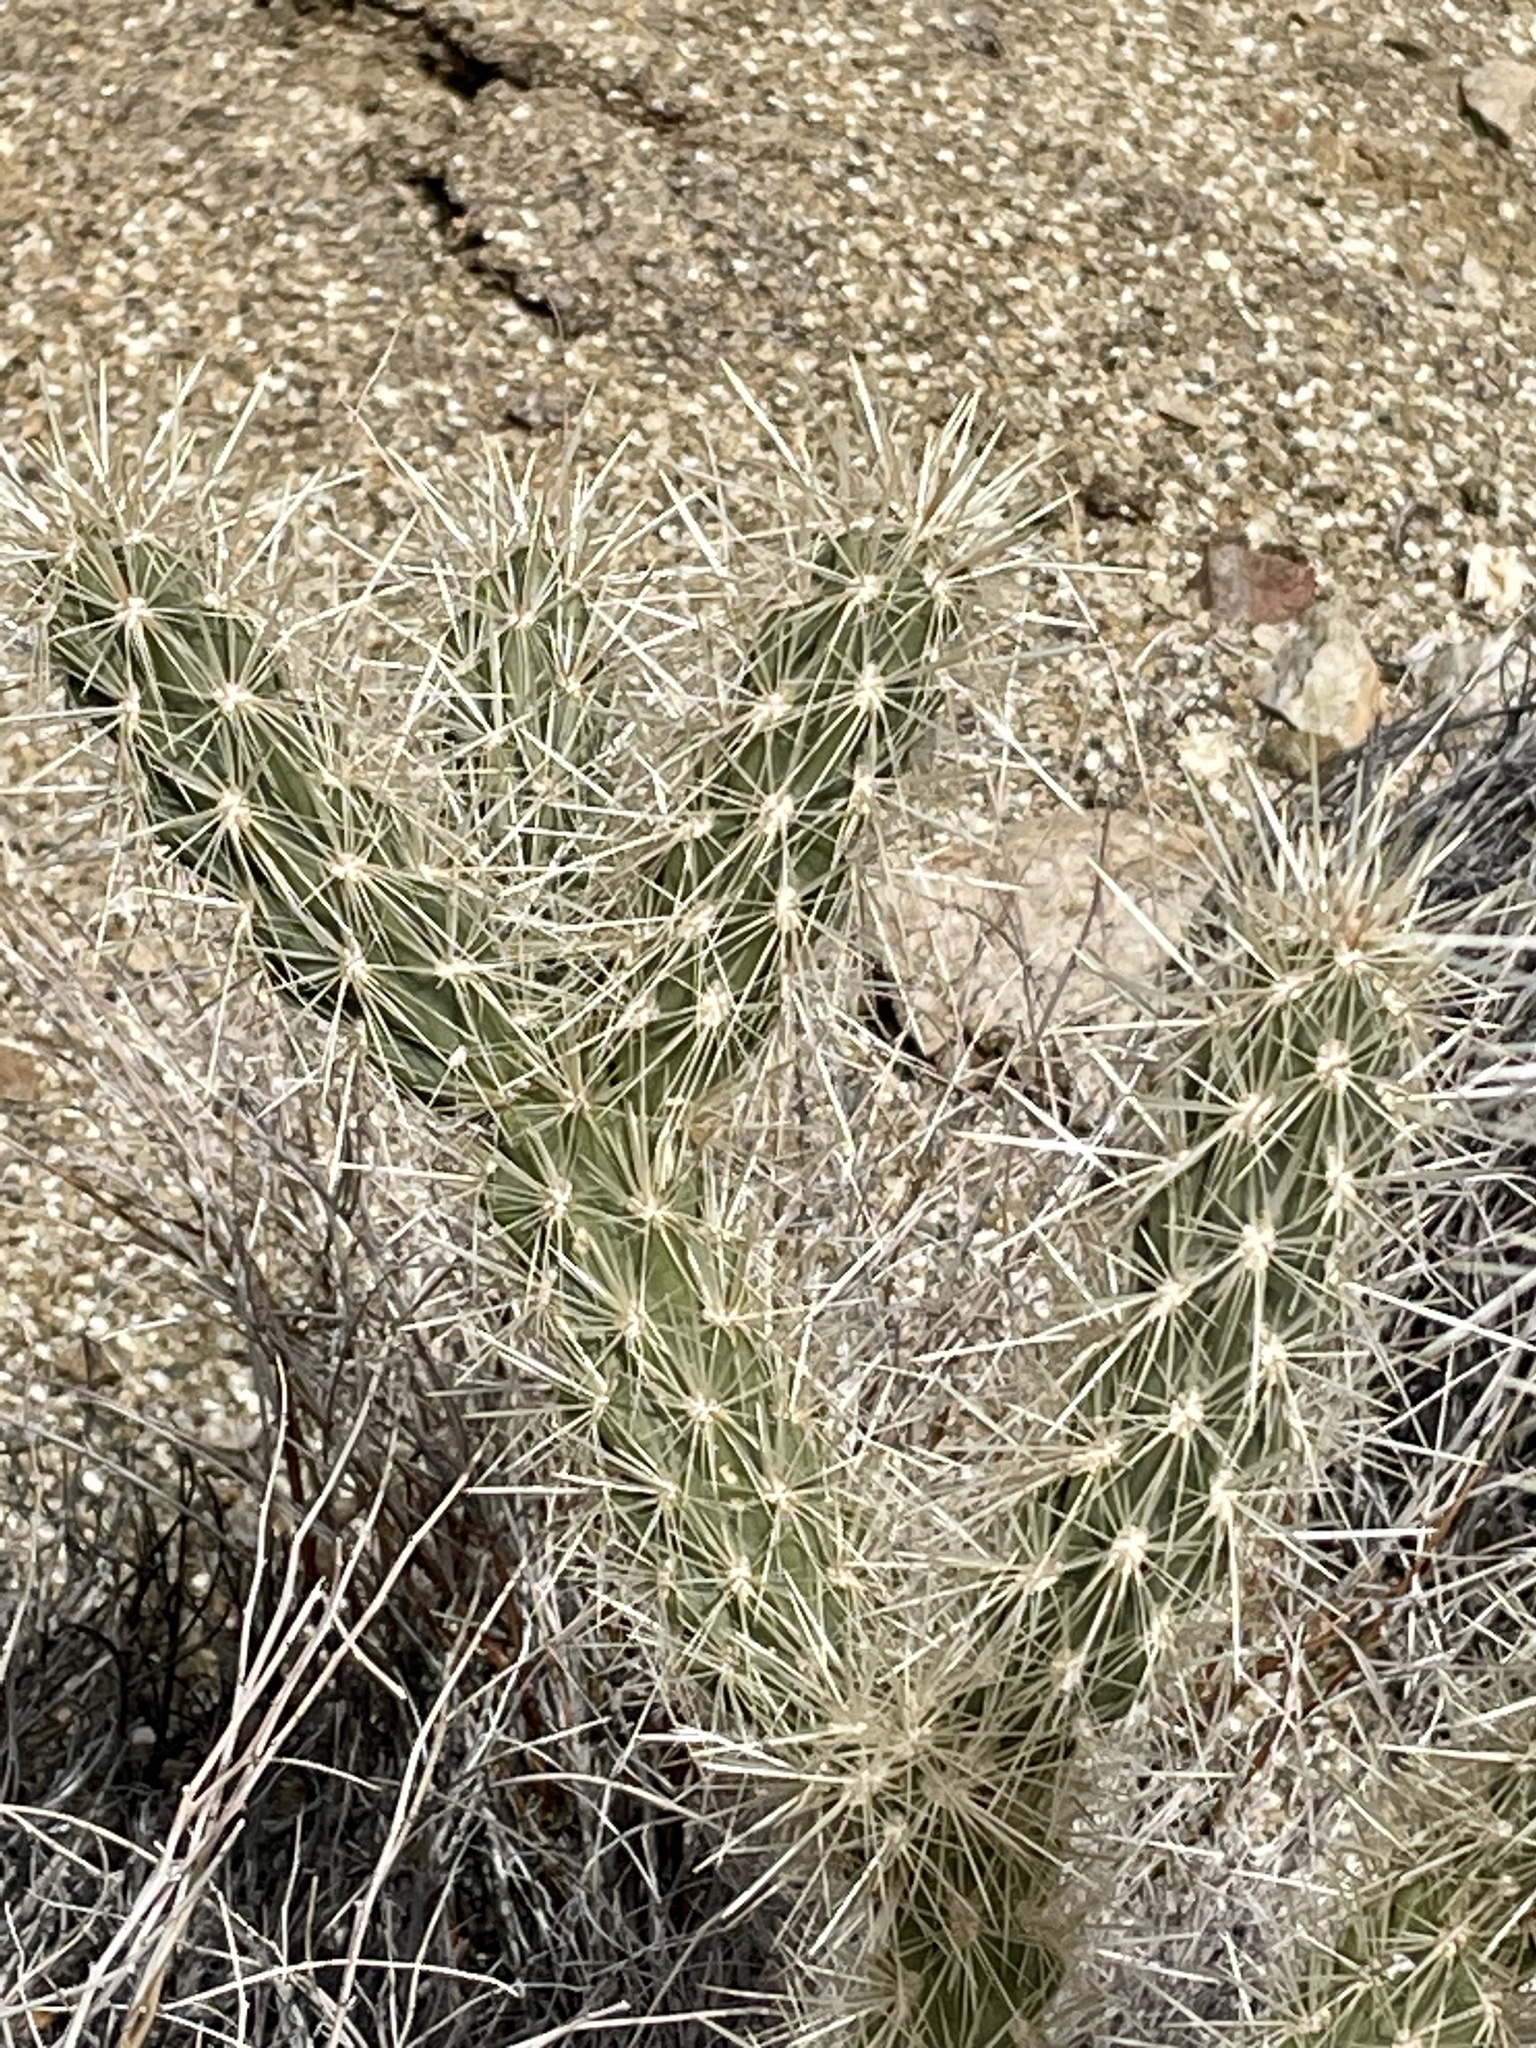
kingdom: Plantae
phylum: Tracheophyta
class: Magnoliopsida
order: Caryophyllales
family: Cactaceae
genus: Cylindropuntia
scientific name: Cylindropuntia ganderi
